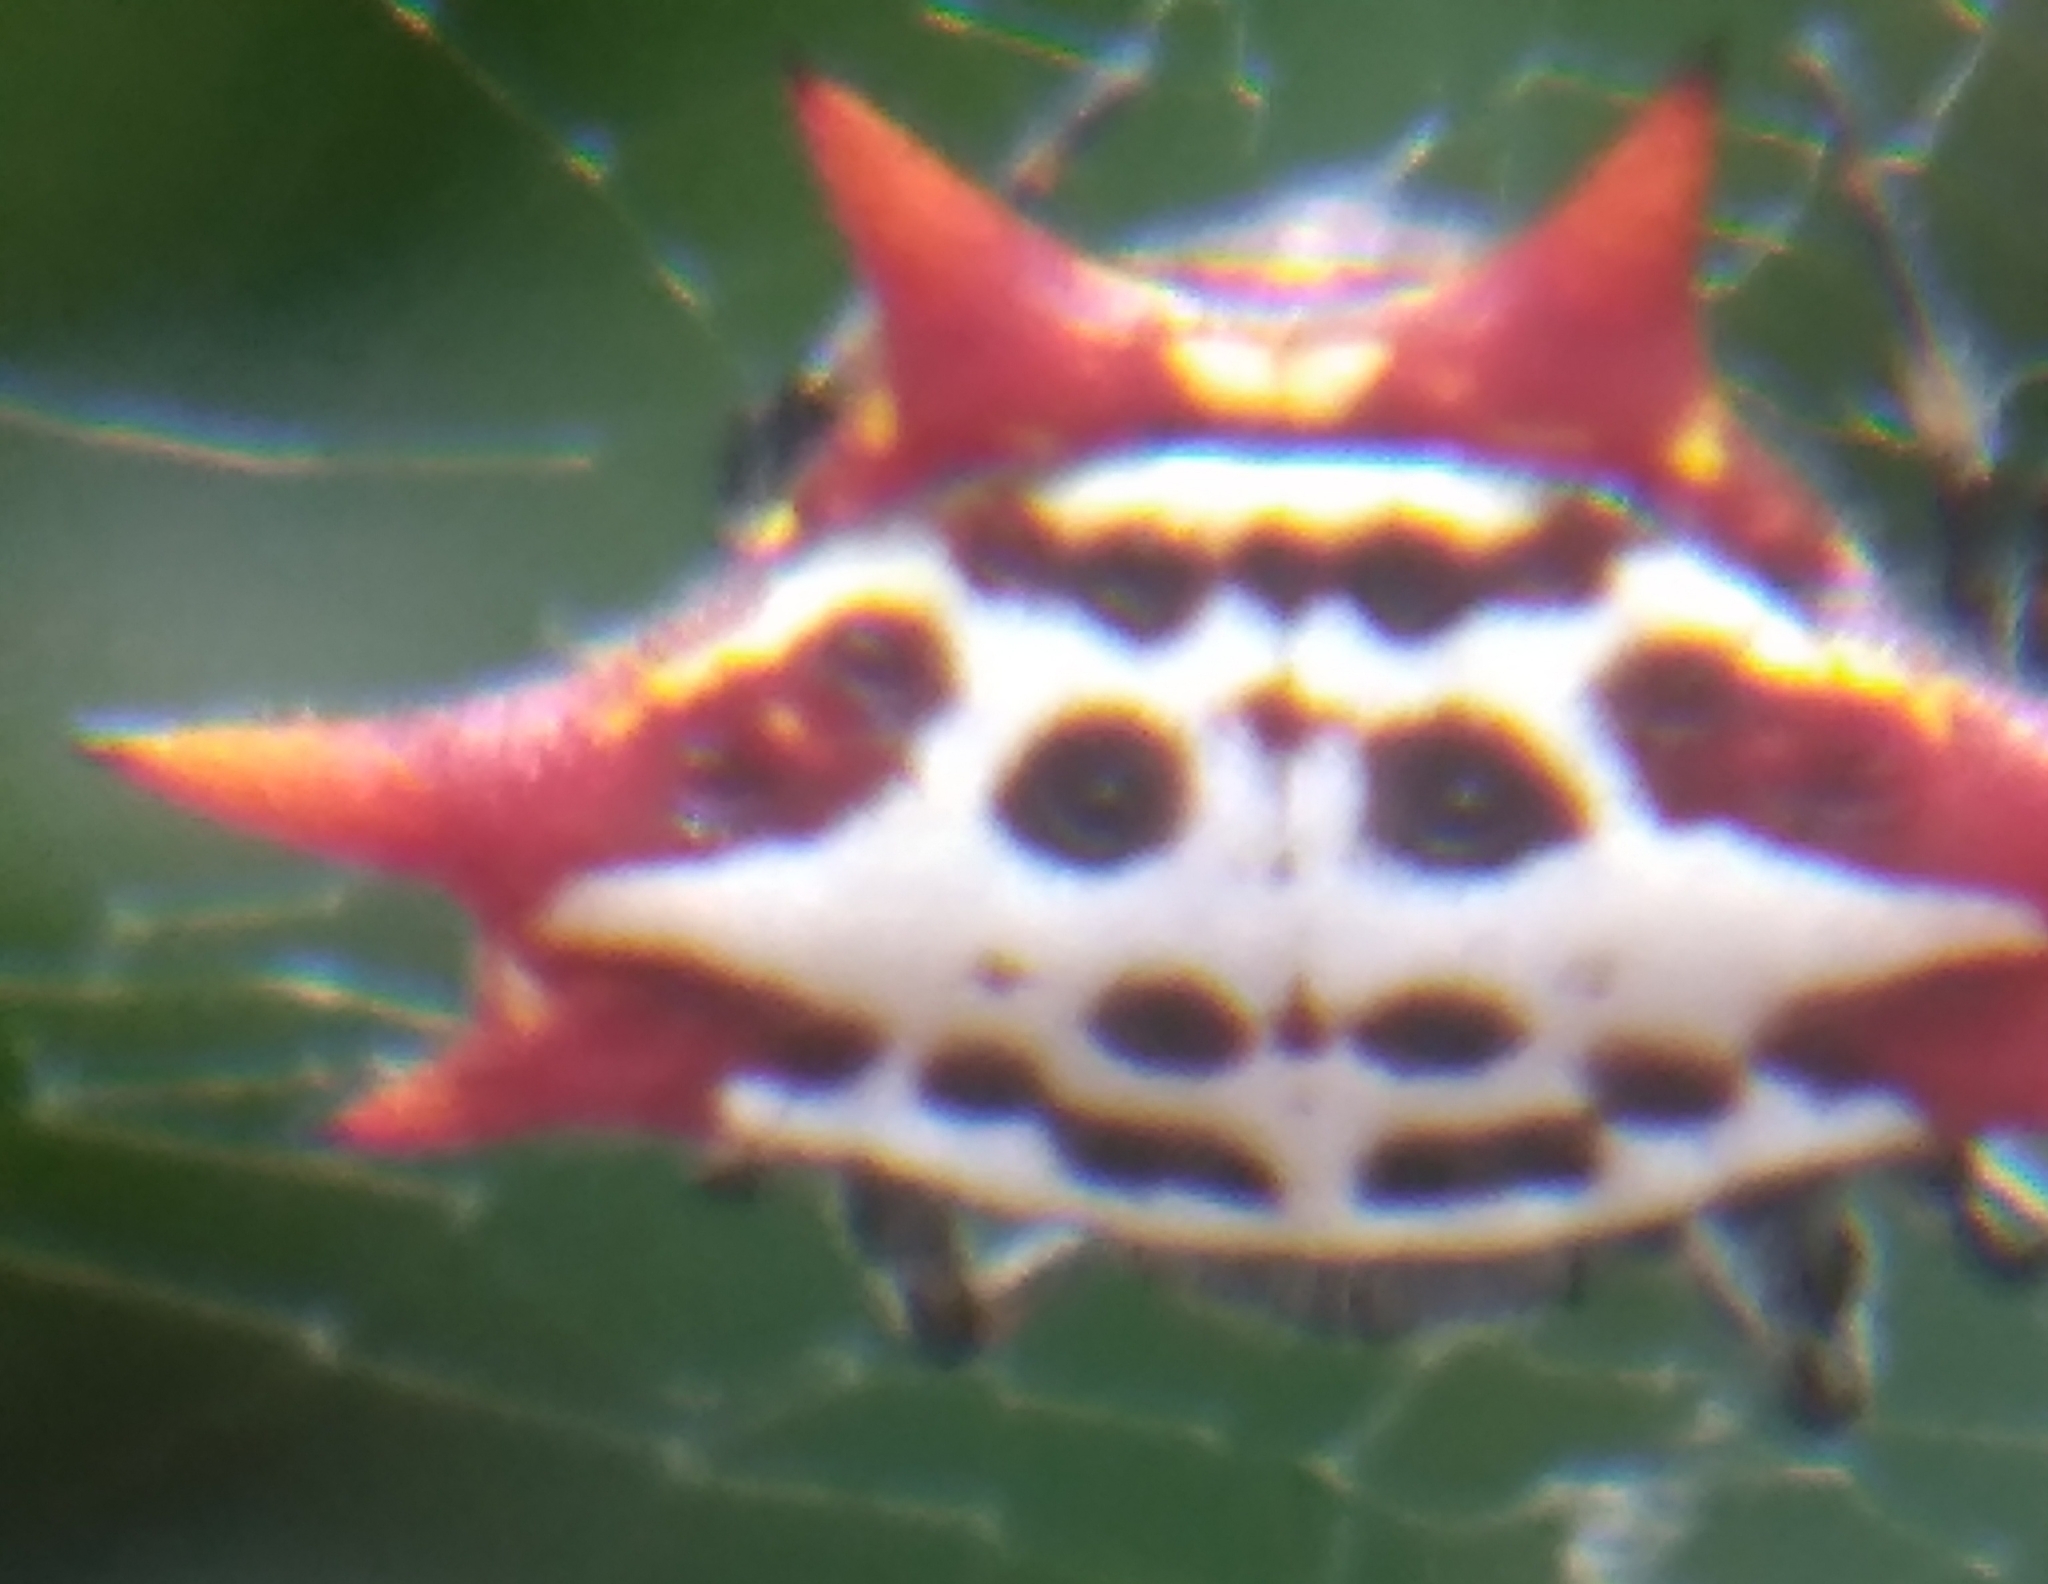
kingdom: Animalia
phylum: Arthropoda
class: Arachnida
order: Araneae
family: Araneidae
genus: Gasteracantha
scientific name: Gasteracantha cancriformis
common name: Orb weavers
